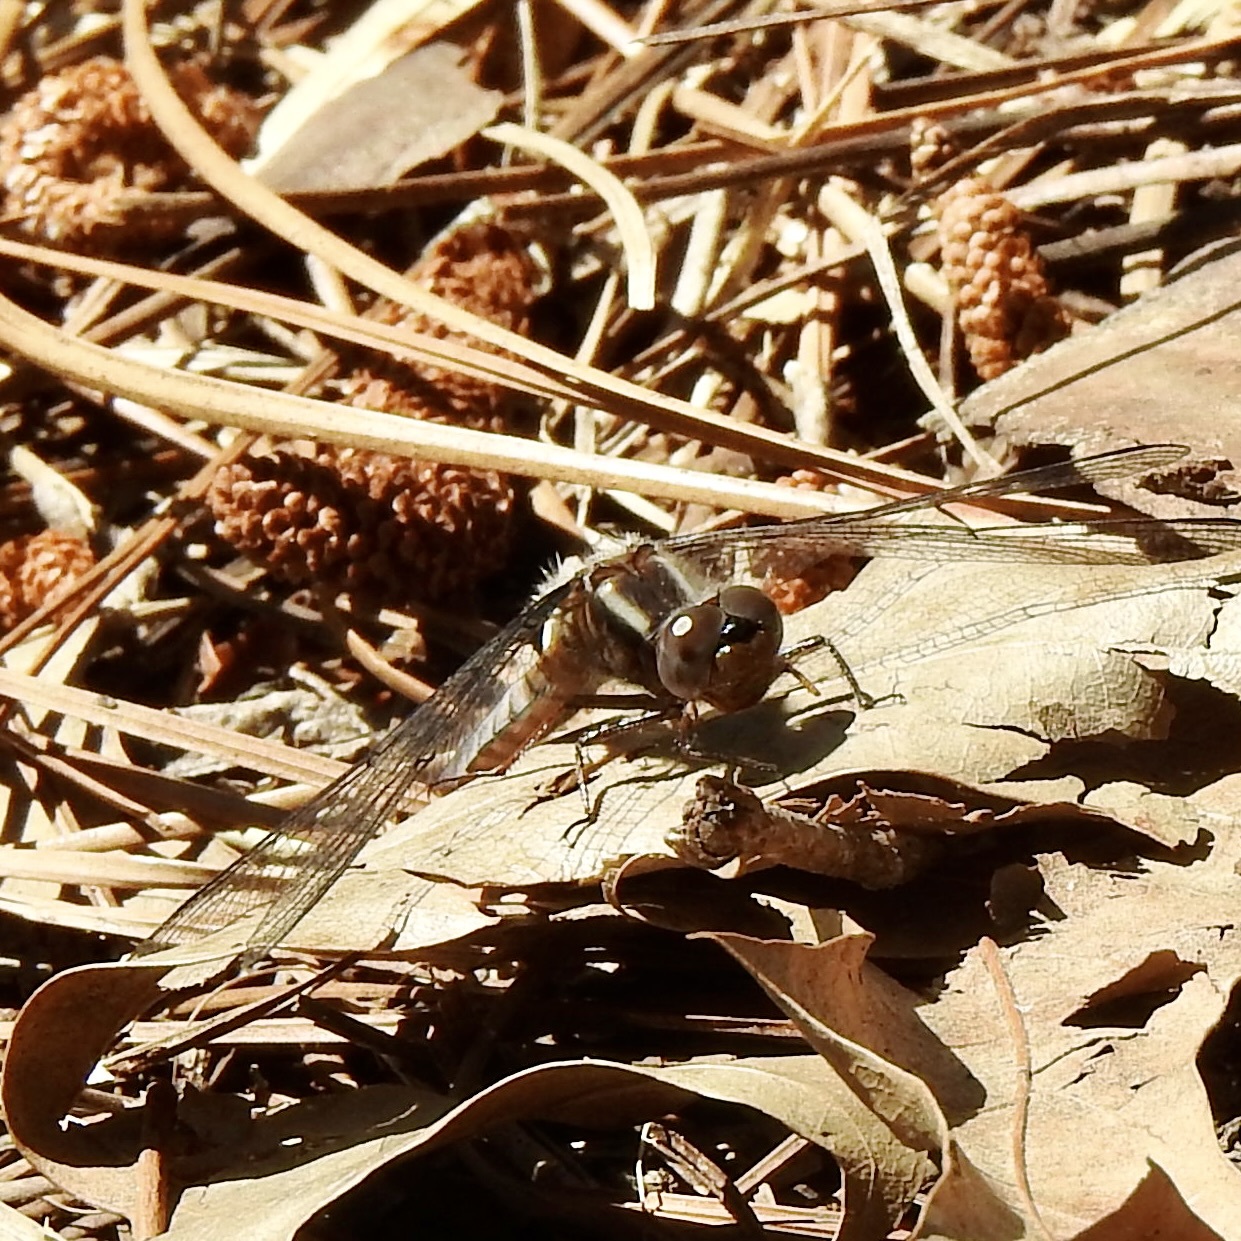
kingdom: Animalia
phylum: Arthropoda
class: Insecta
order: Odonata
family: Libellulidae
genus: Ladona
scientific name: Ladona deplanata
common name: Blue corporal
